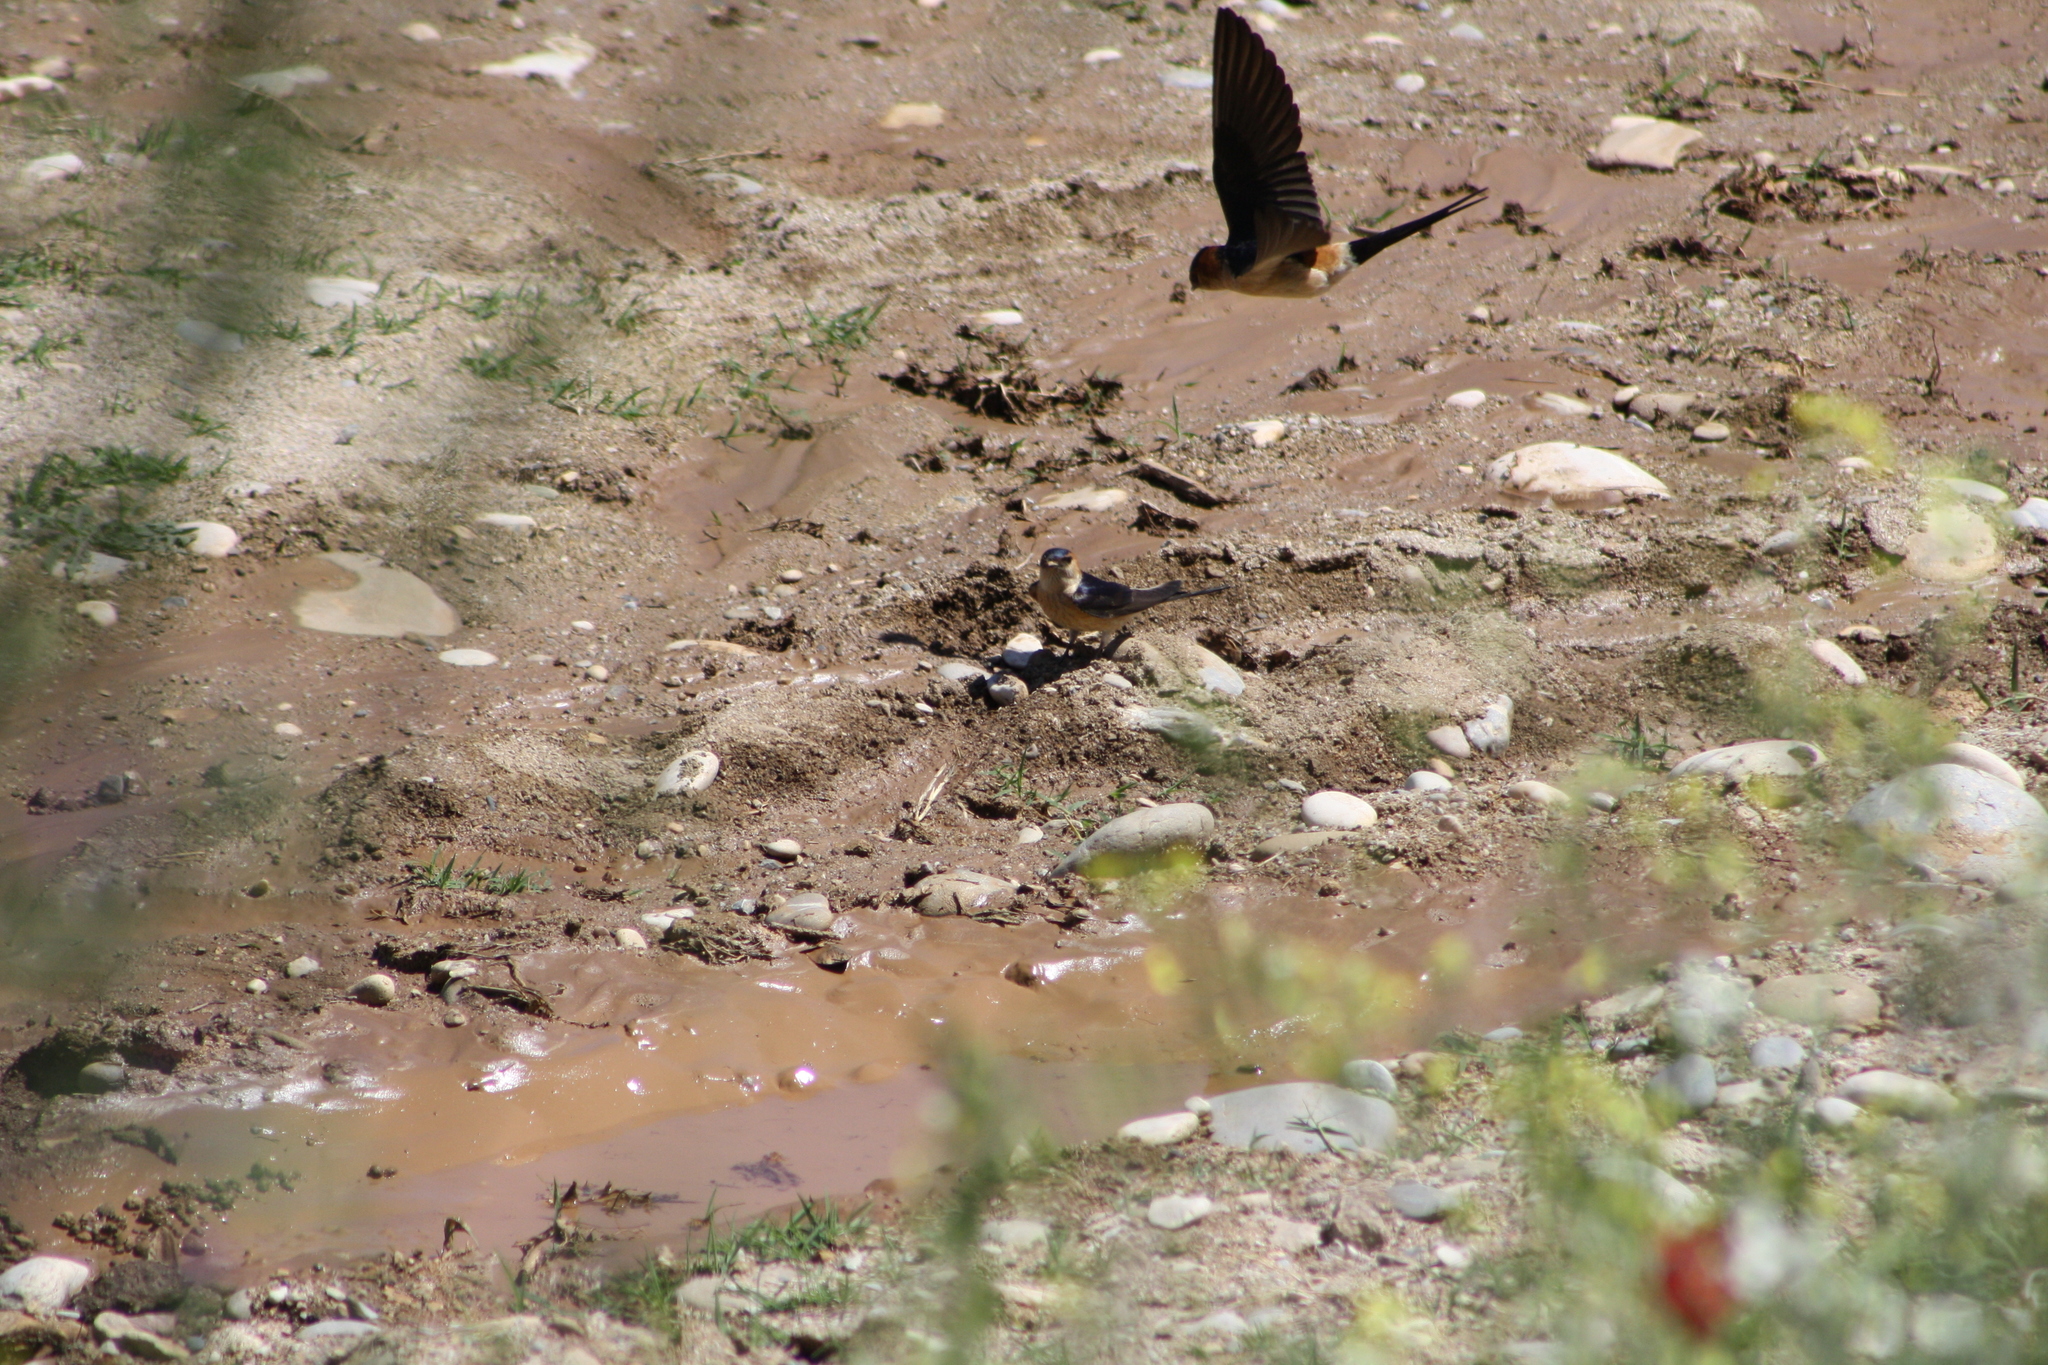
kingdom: Animalia
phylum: Chordata
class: Aves
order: Passeriformes
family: Hirundinidae
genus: Cecropis
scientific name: Cecropis daurica
